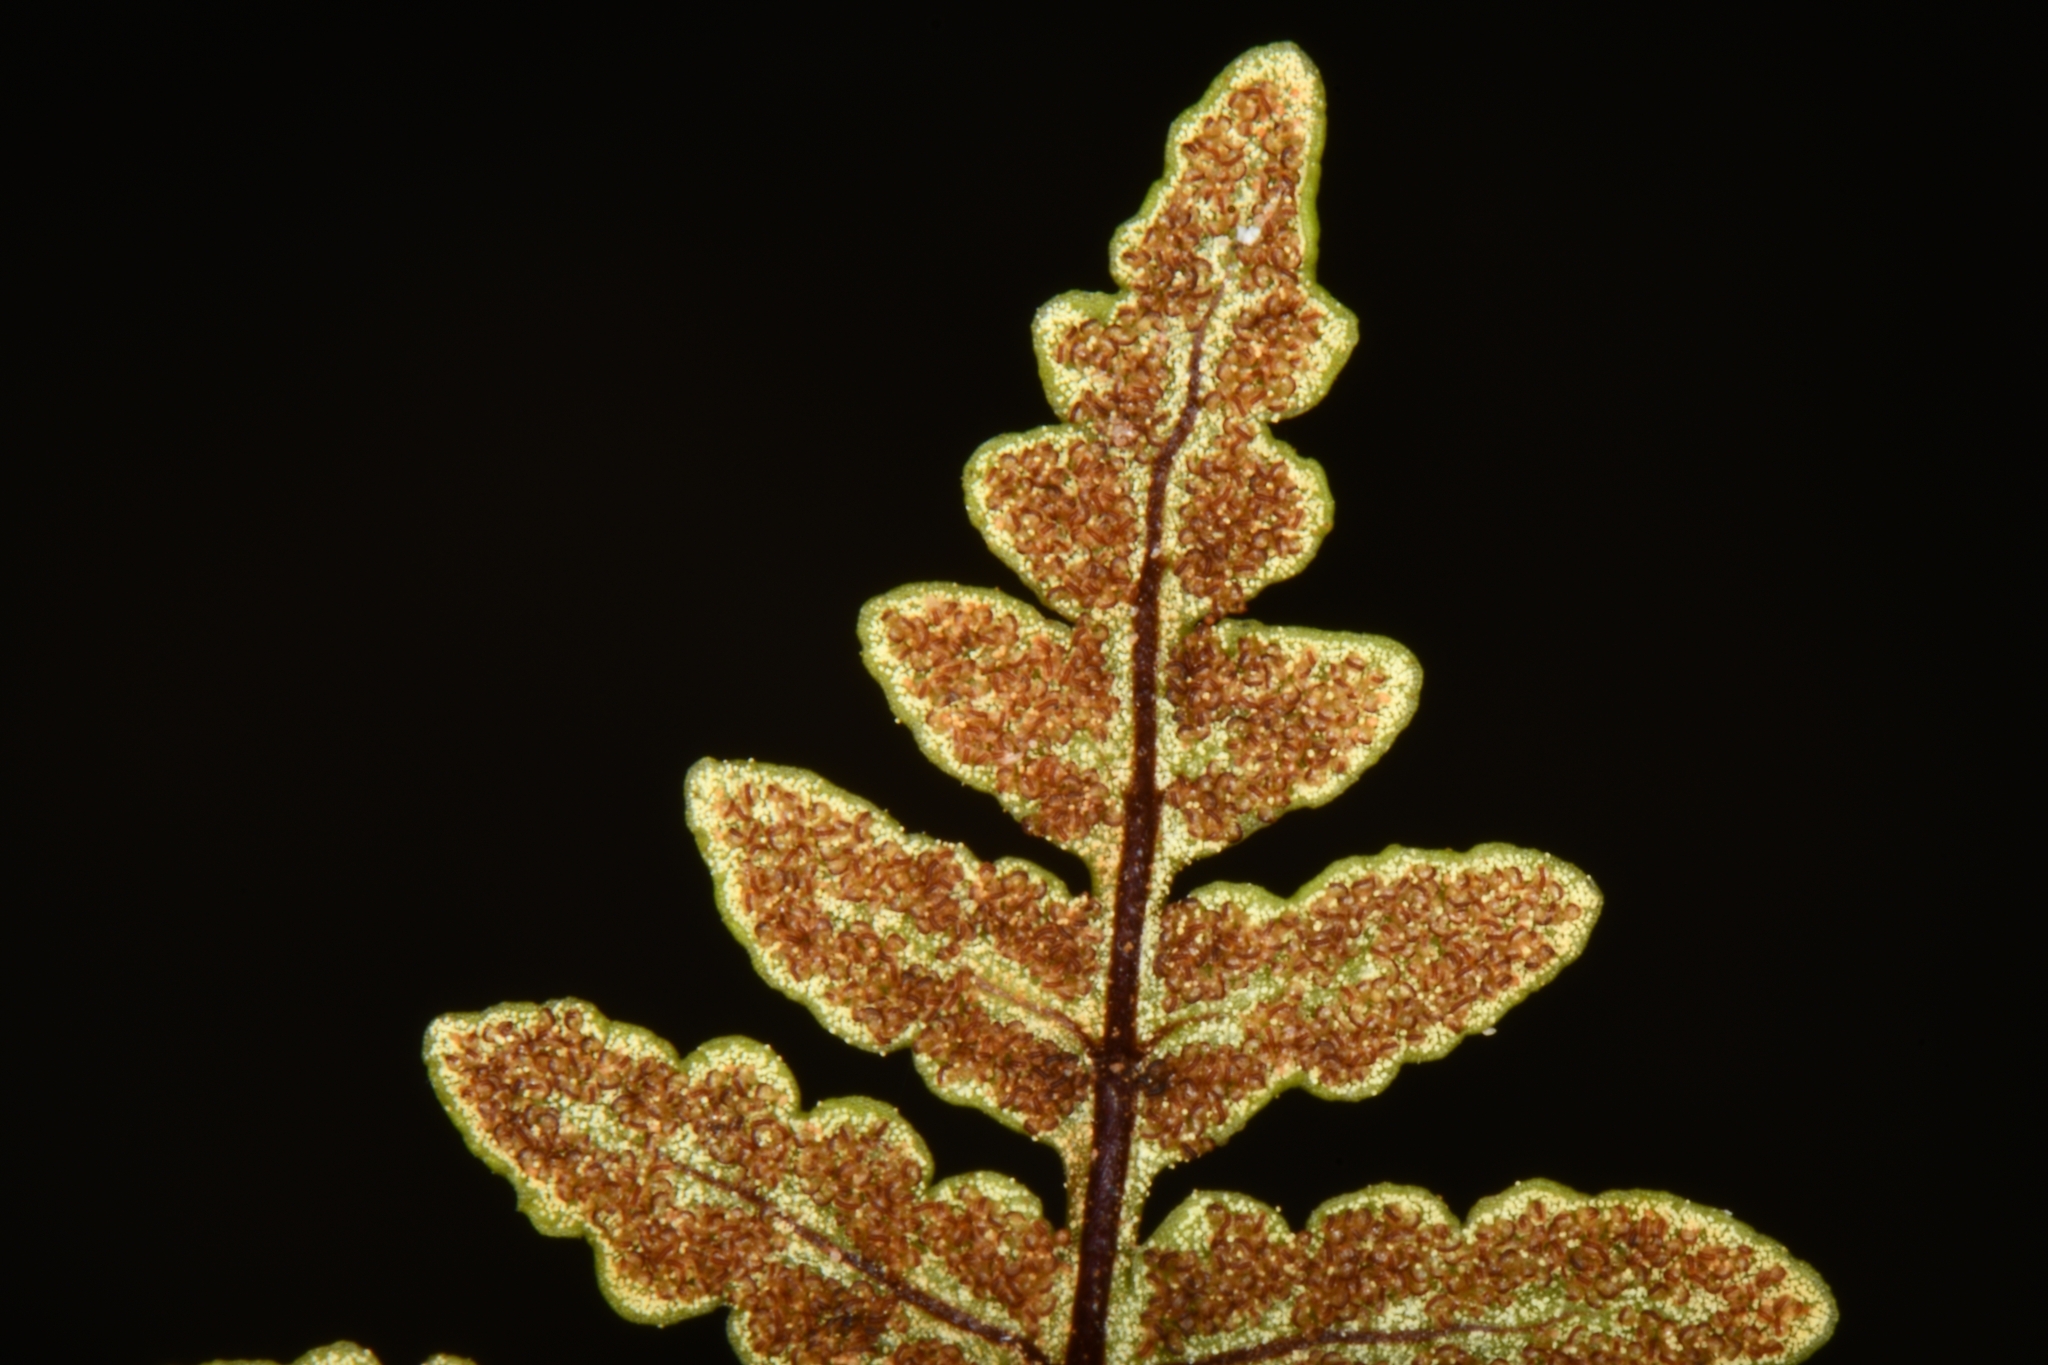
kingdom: Plantae
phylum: Tracheophyta
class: Polypodiopsida
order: Polypodiales
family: Pteridaceae
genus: Pentagramma
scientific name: Pentagramma triangularis
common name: Gold fern
